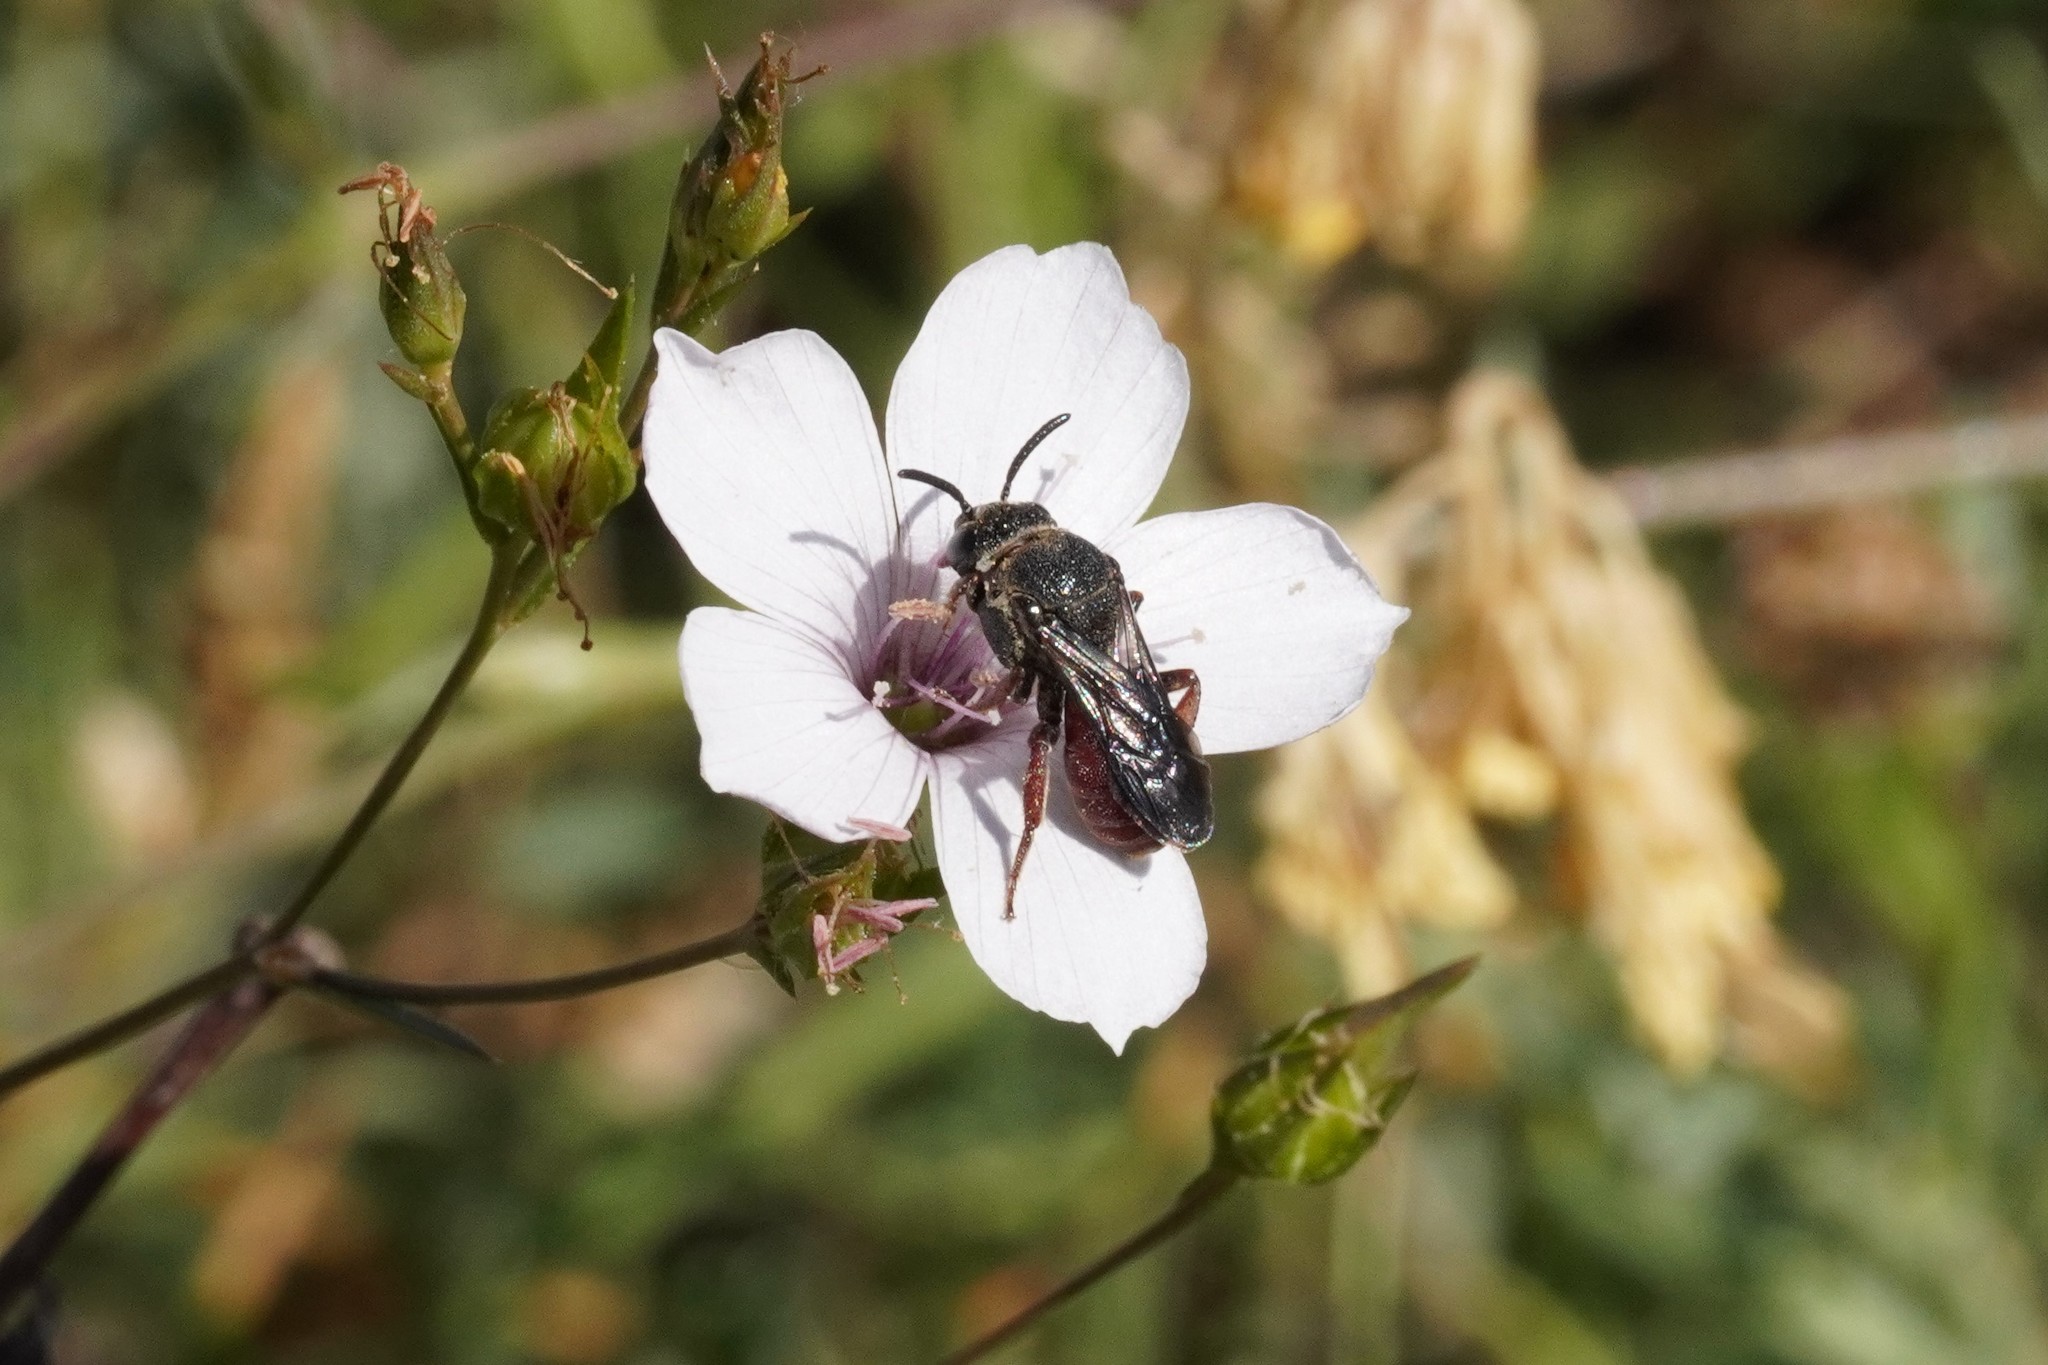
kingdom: Animalia
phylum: Arthropoda
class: Insecta
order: Hymenoptera
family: Apidae
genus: Biastes
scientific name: Biastes brevicornis
